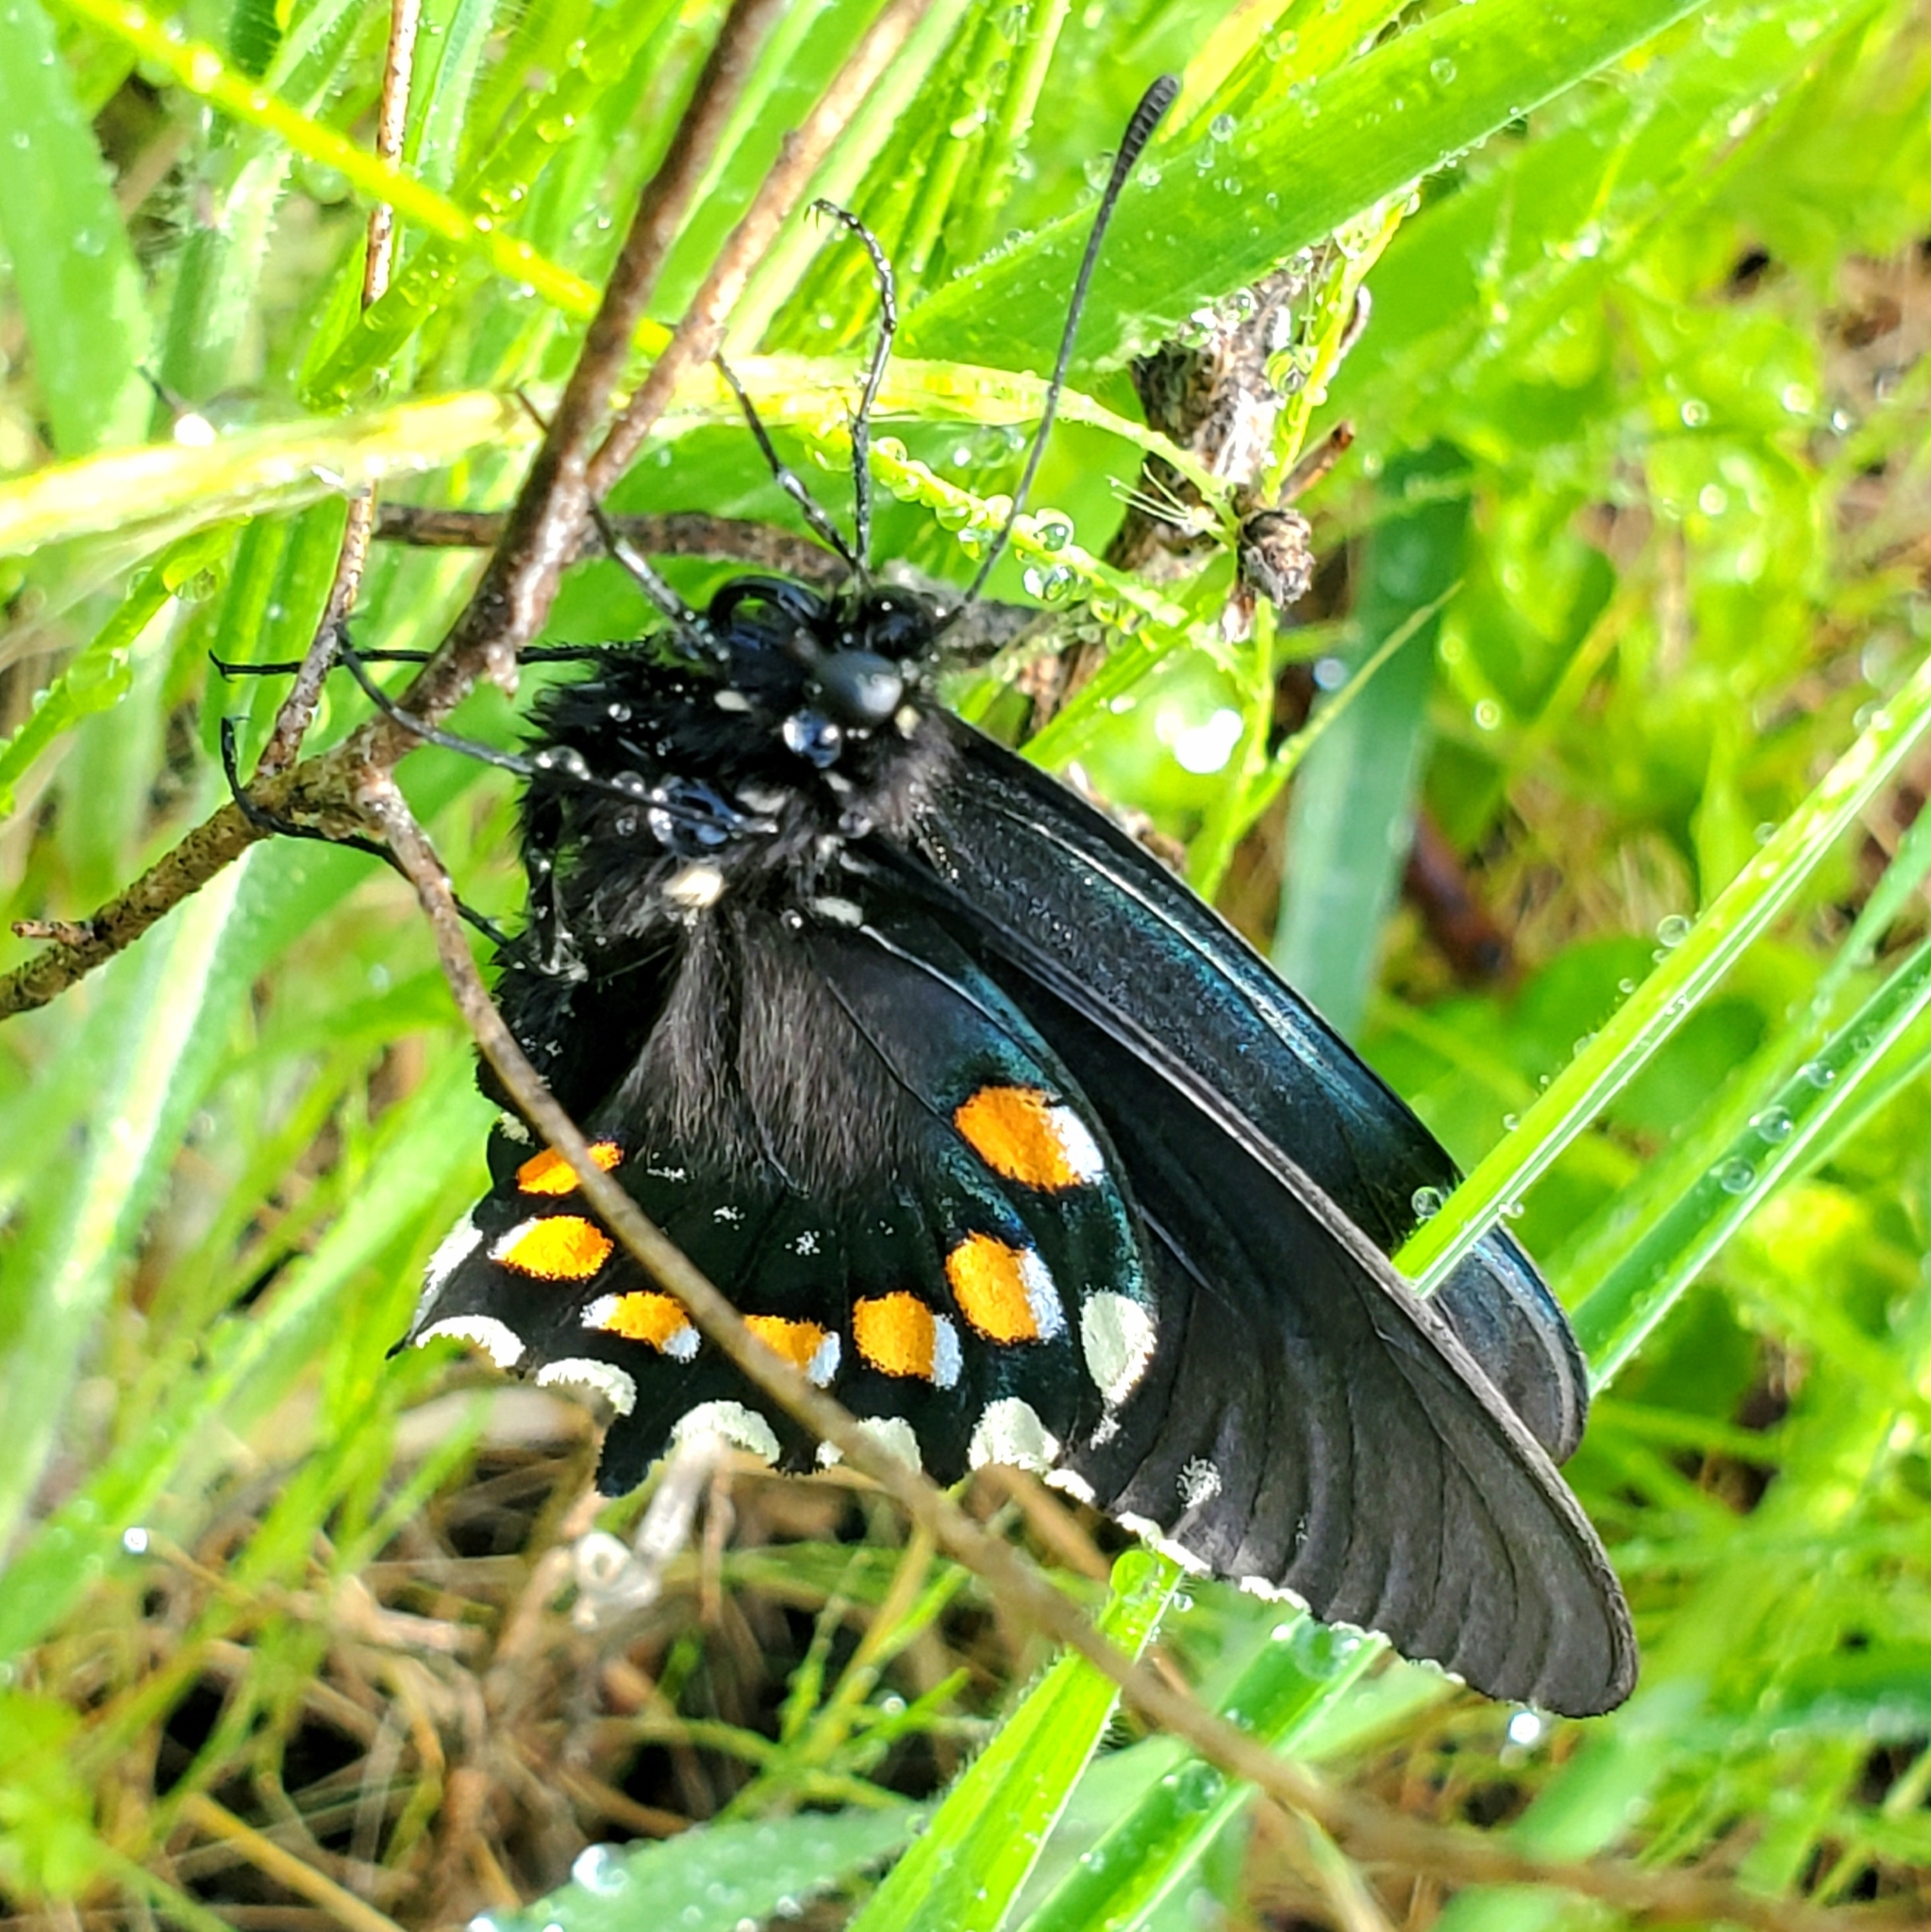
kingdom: Animalia
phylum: Arthropoda
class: Insecta
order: Lepidoptera
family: Papilionidae
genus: Battus
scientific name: Battus philenor
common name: Pipevine swallowtail
